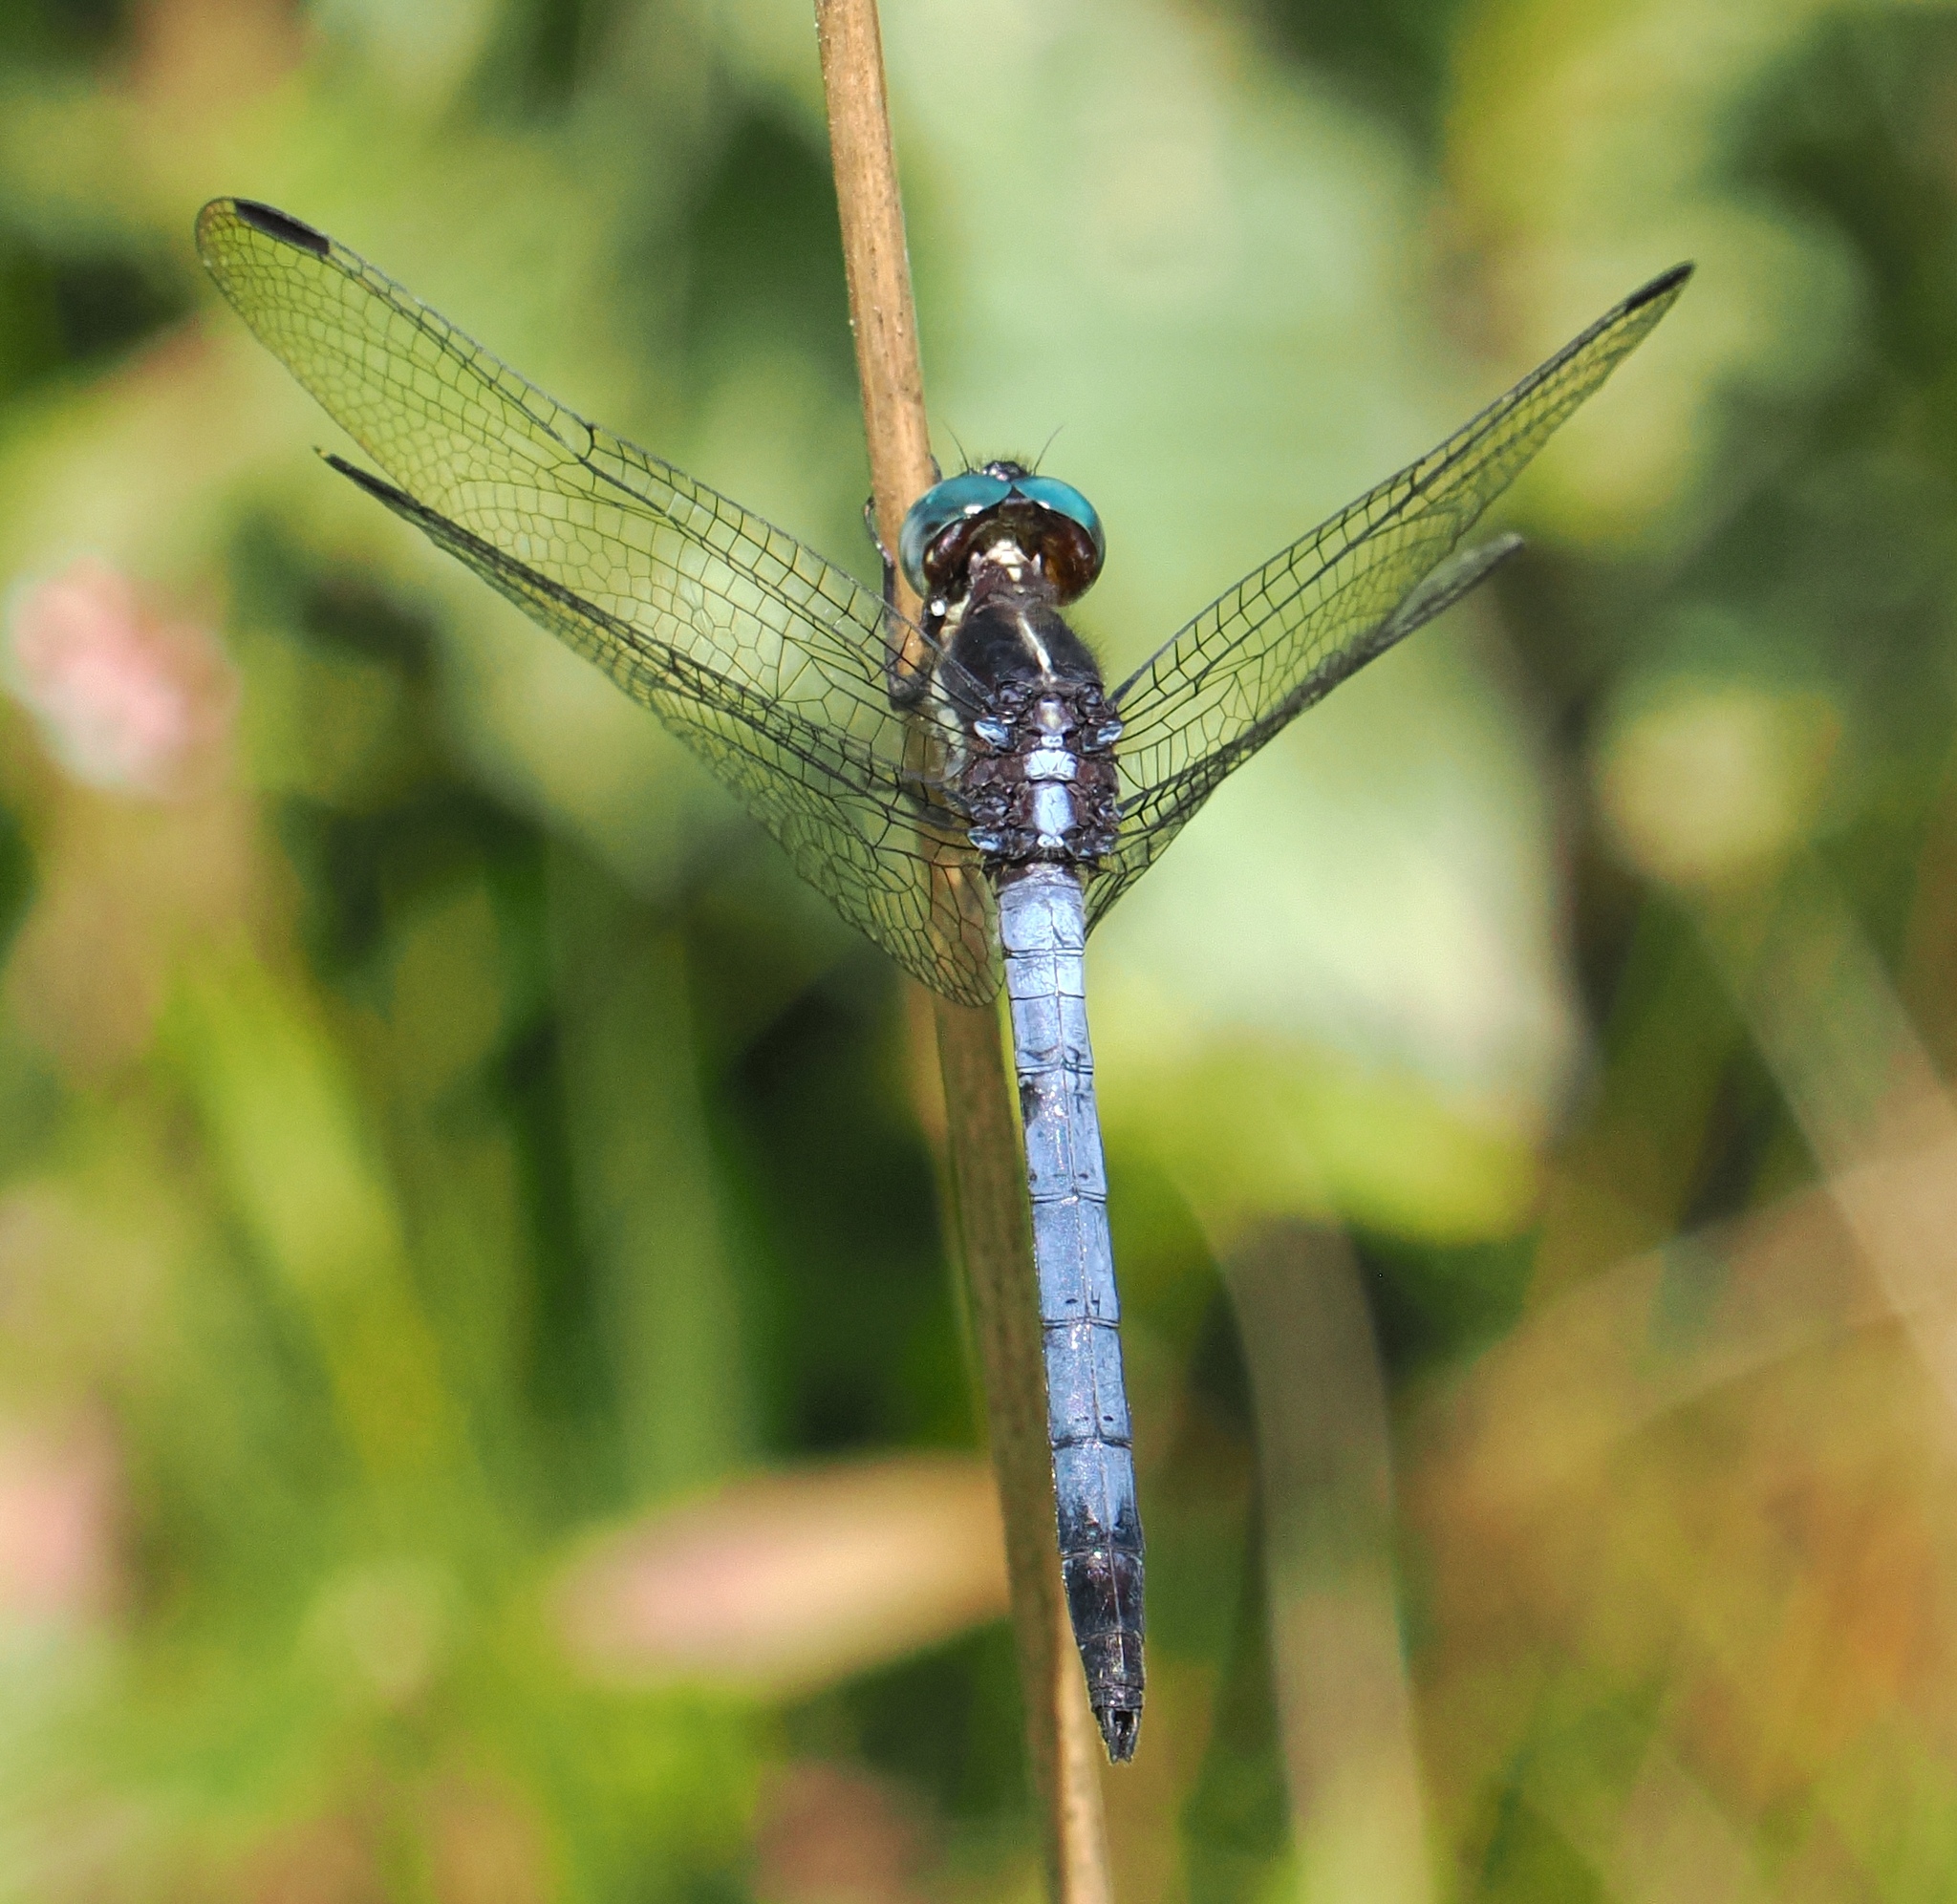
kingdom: Animalia
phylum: Arthropoda
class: Insecta
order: Odonata
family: Libellulidae
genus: Dasythemis
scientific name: Dasythemis mincki
